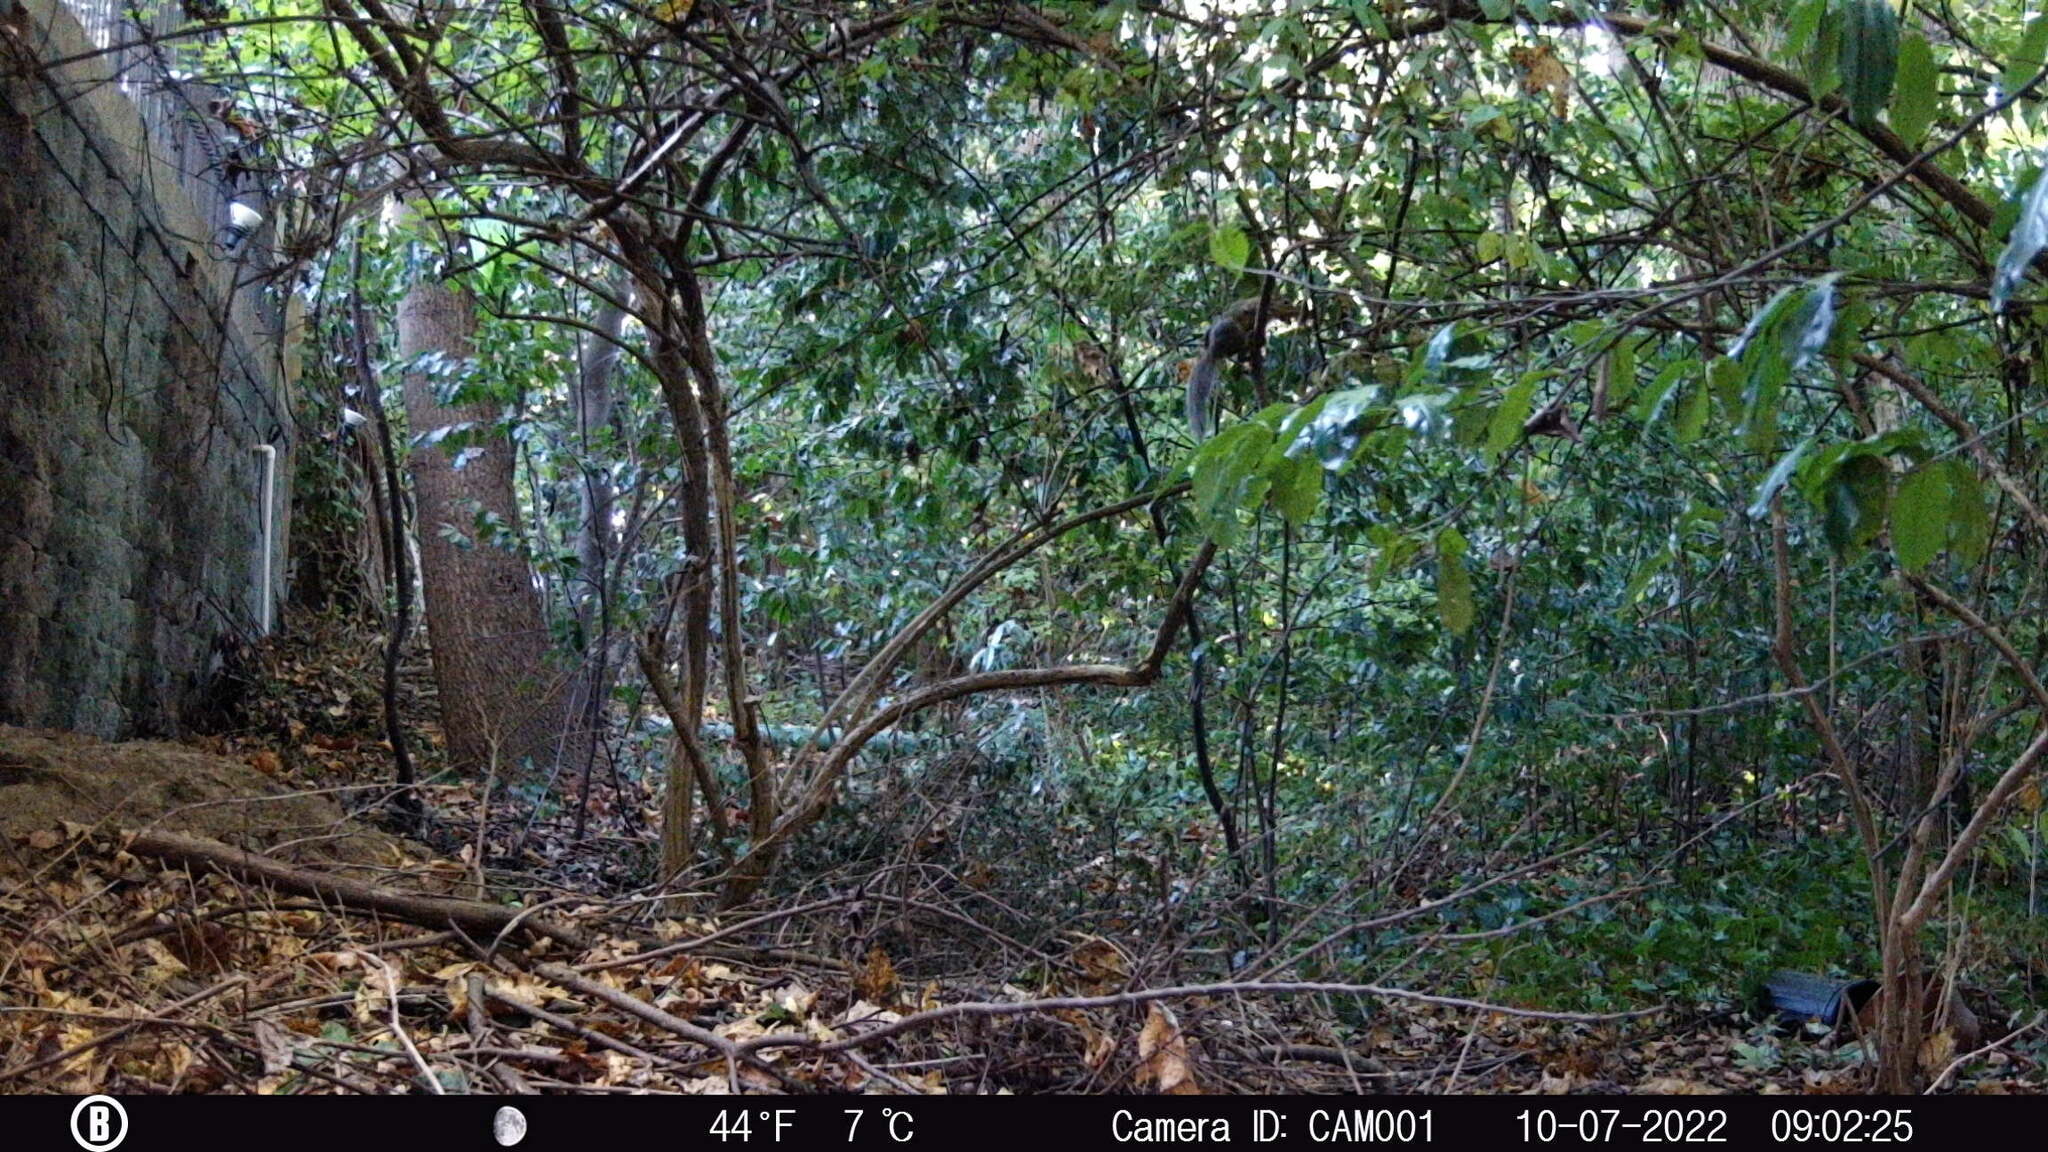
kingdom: Animalia
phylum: Chordata
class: Mammalia
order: Rodentia
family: Sciuridae
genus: Sciurus
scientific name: Sciurus carolinensis
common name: Eastern gray squirrel
